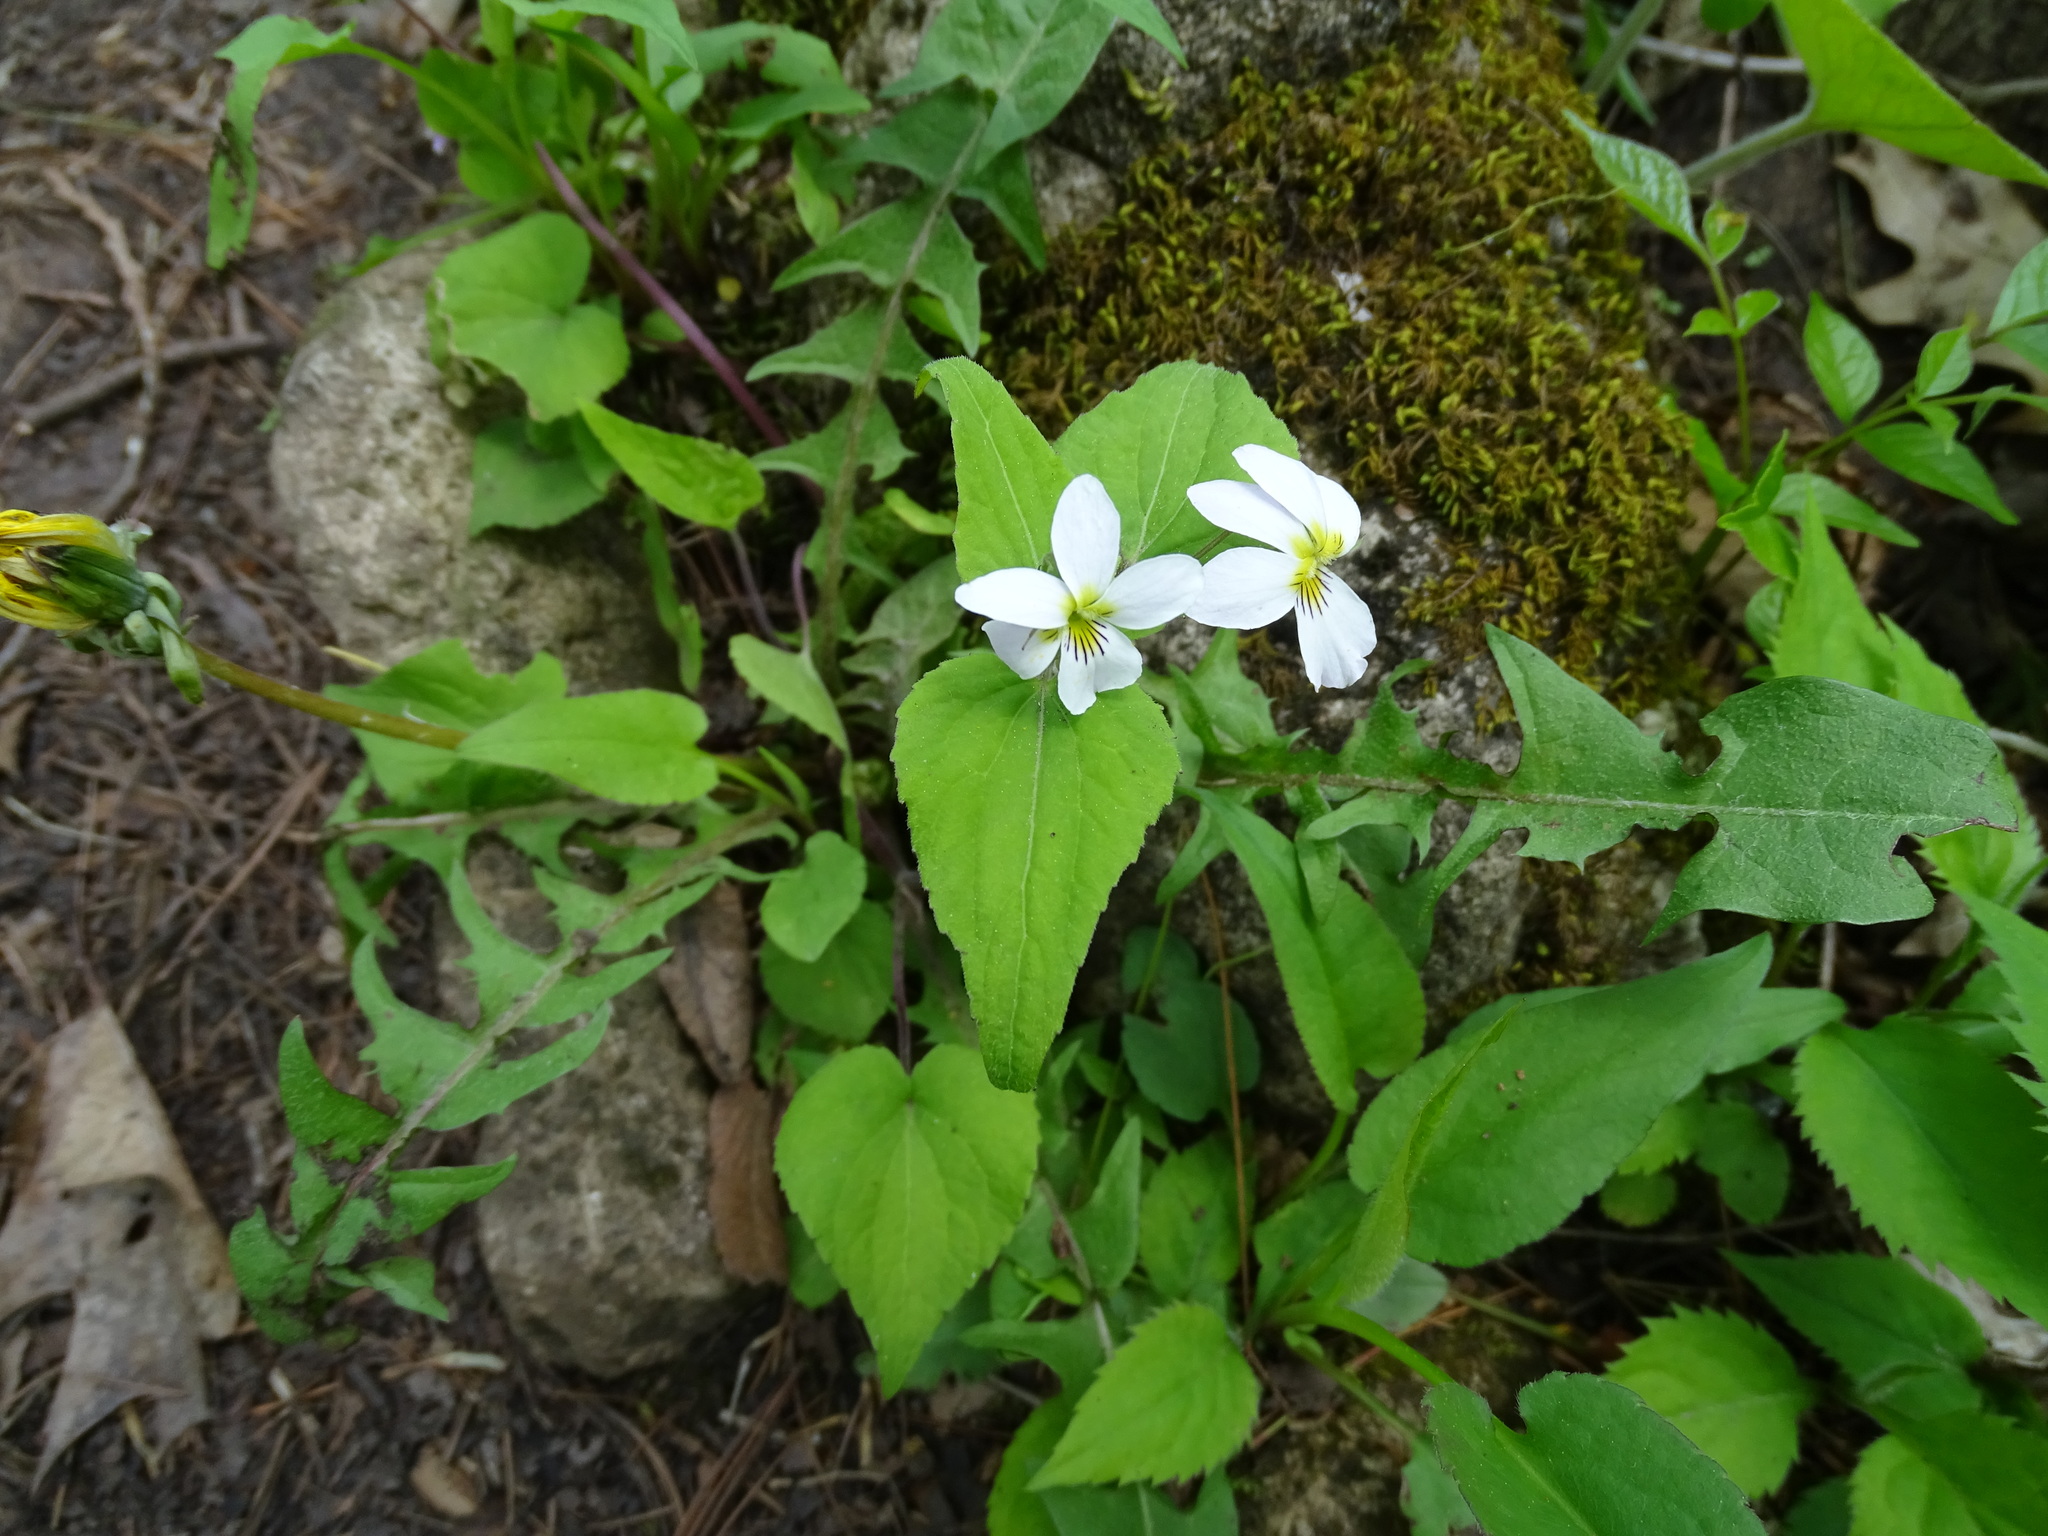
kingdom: Plantae
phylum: Tracheophyta
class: Magnoliopsida
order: Malpighiales
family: Violaceae
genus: Viola
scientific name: Viola canadensis
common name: Canada violet
